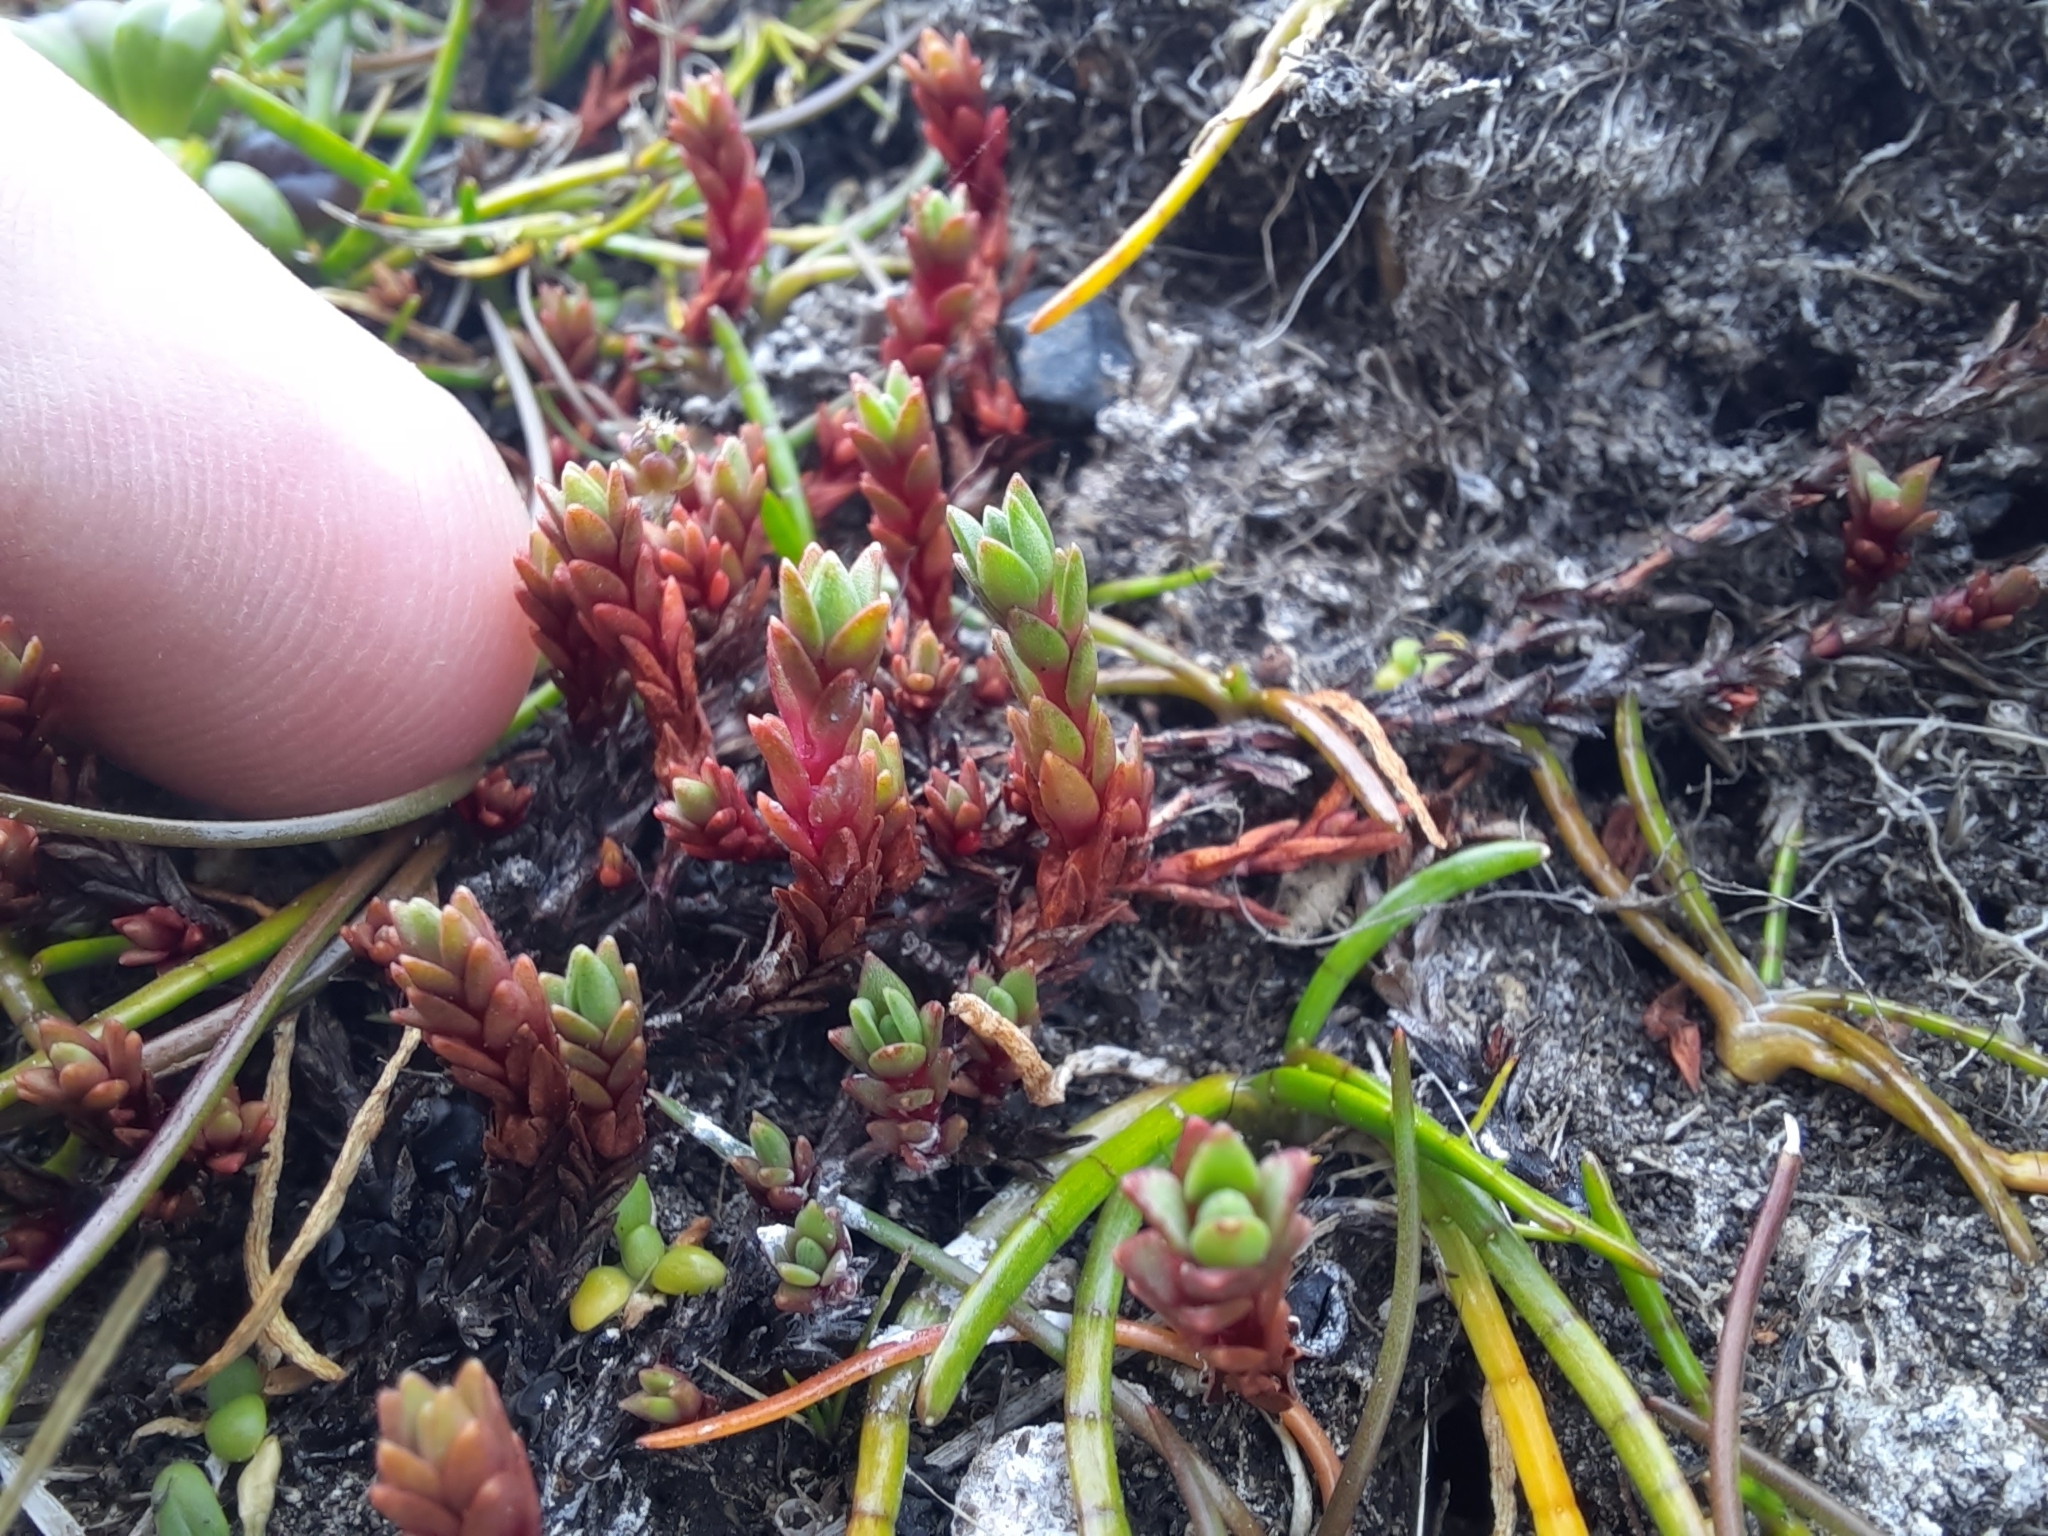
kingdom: Plantae
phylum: Tracheophyta
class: Magnoliopsida
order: Saxifragales
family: Crassulaceae
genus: Crassula
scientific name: Crassula moschata
